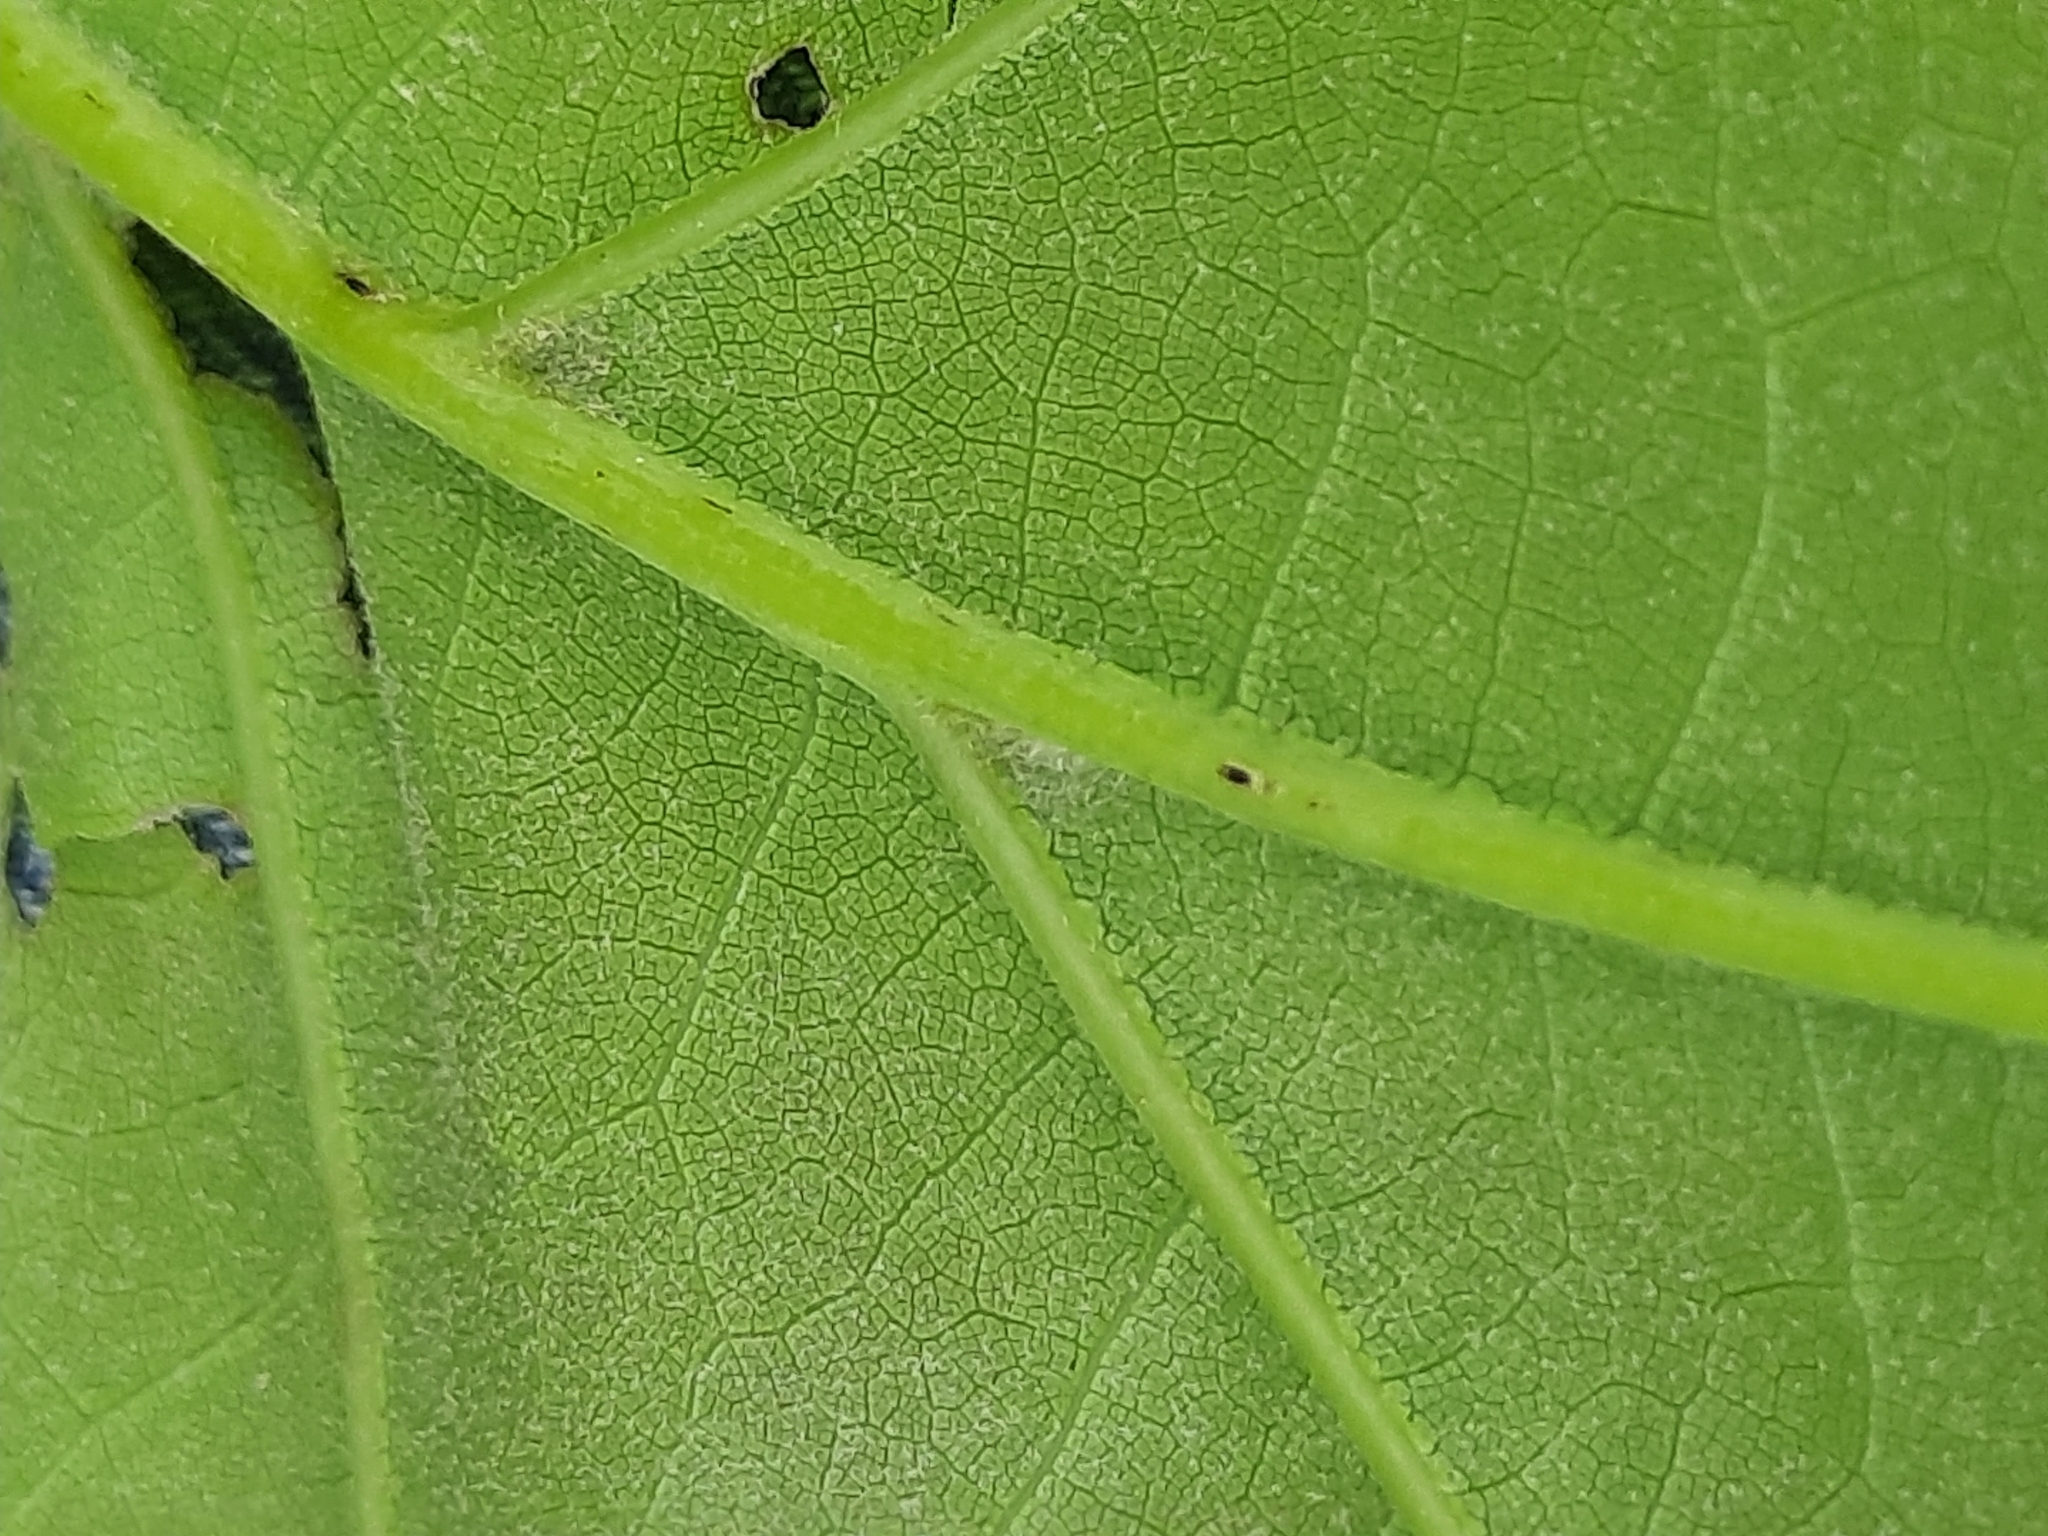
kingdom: Plantae
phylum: Tracheophyta
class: Magnoliopsida
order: Fagales
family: Fagaceae
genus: Quercus
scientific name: Quercus rubra
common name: Red oak
